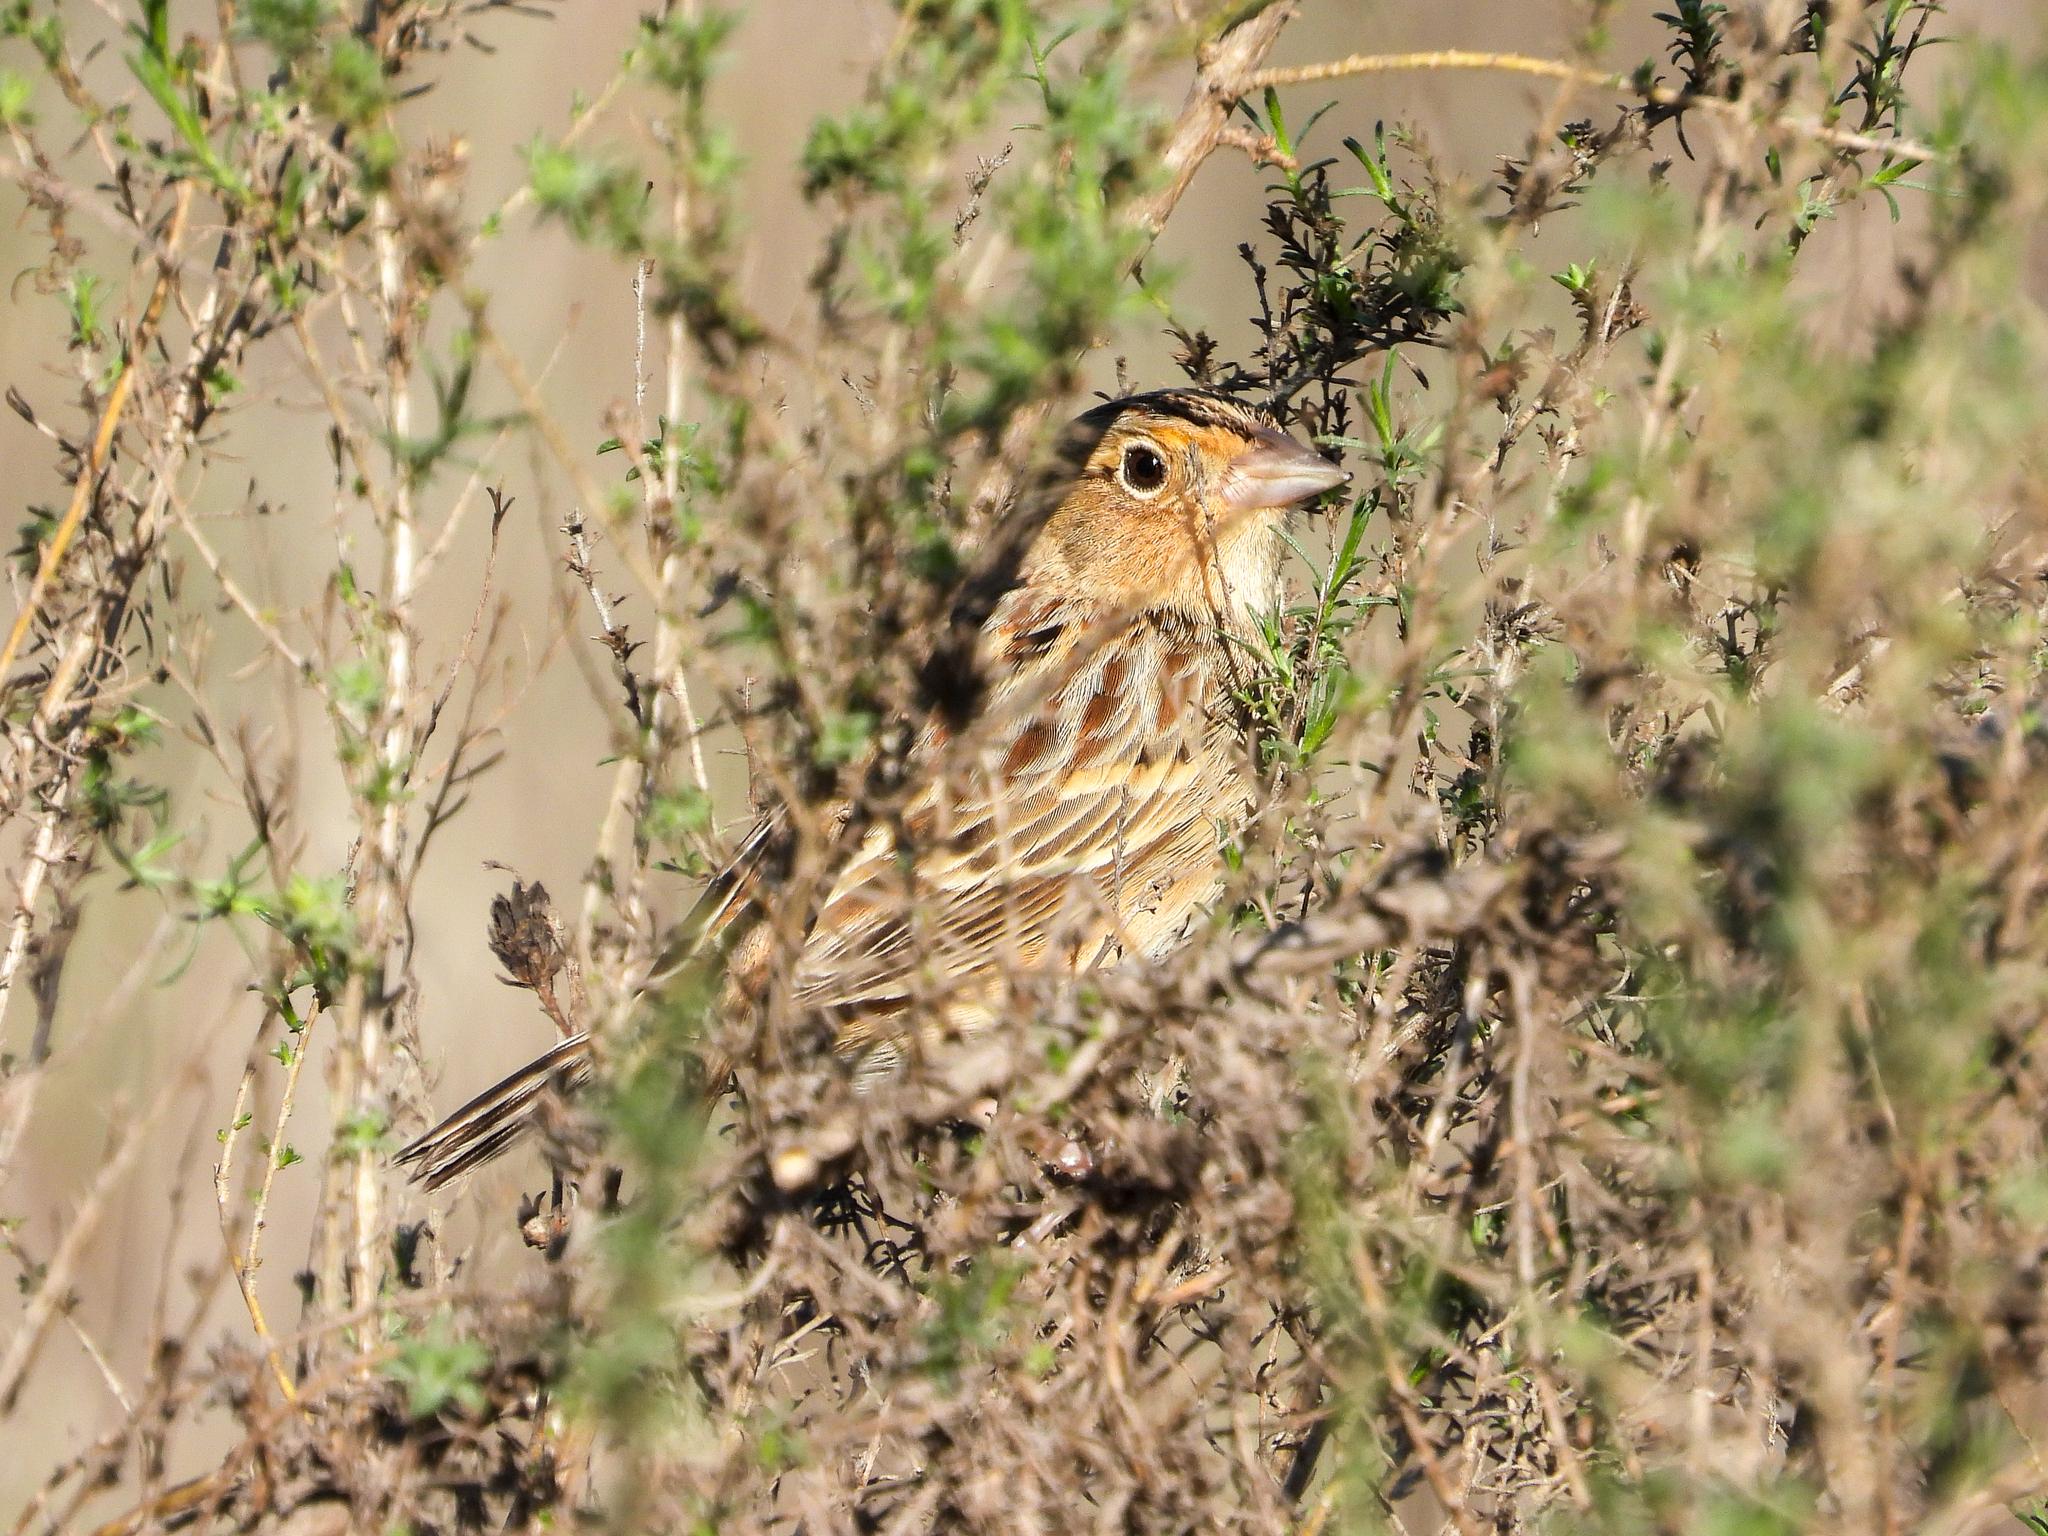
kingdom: Animalia
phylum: Chordata
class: Aves
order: Passeriformes
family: Passerellidae
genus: Ammodramus
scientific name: Ammodramus savannarum
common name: Grasshopper sparrow
